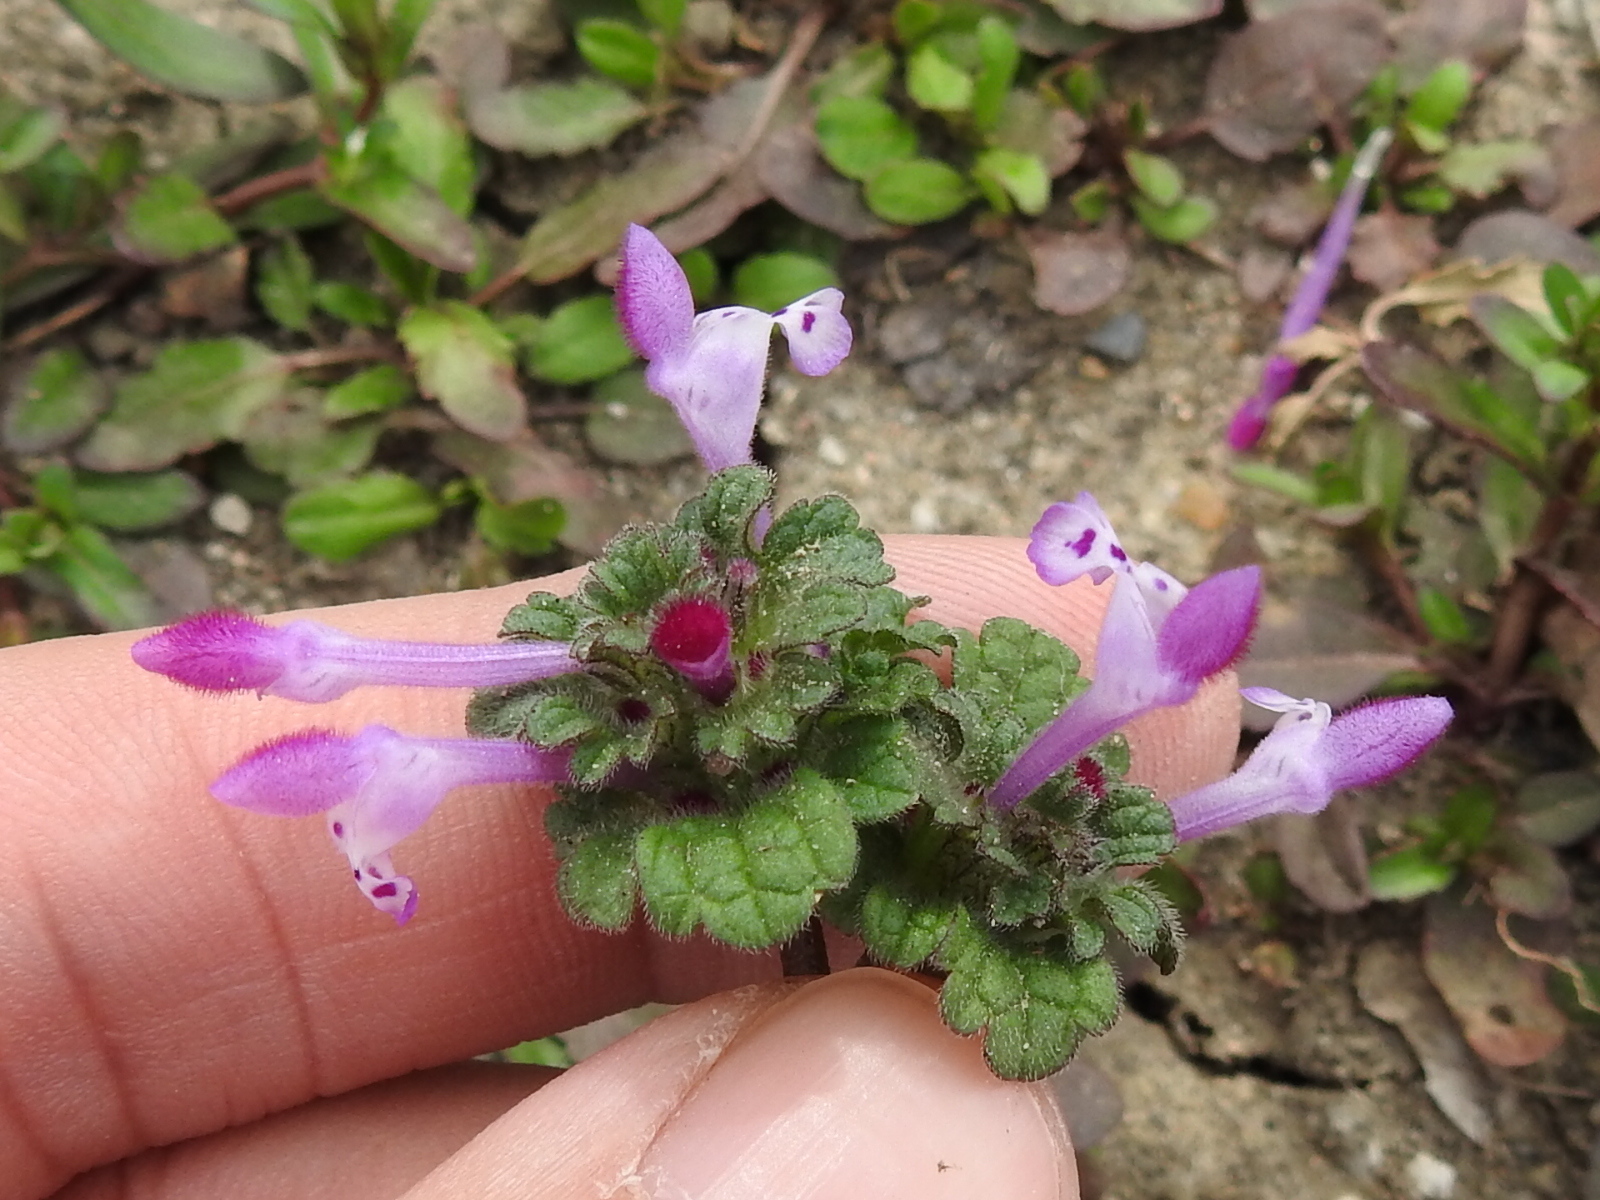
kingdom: Plantae
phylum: Tracheophyta
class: Magnoliopsida
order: Lamiales
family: Lamiaceae
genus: Lamium
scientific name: Lamium amplexicaule
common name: Henbit dead-nettle
